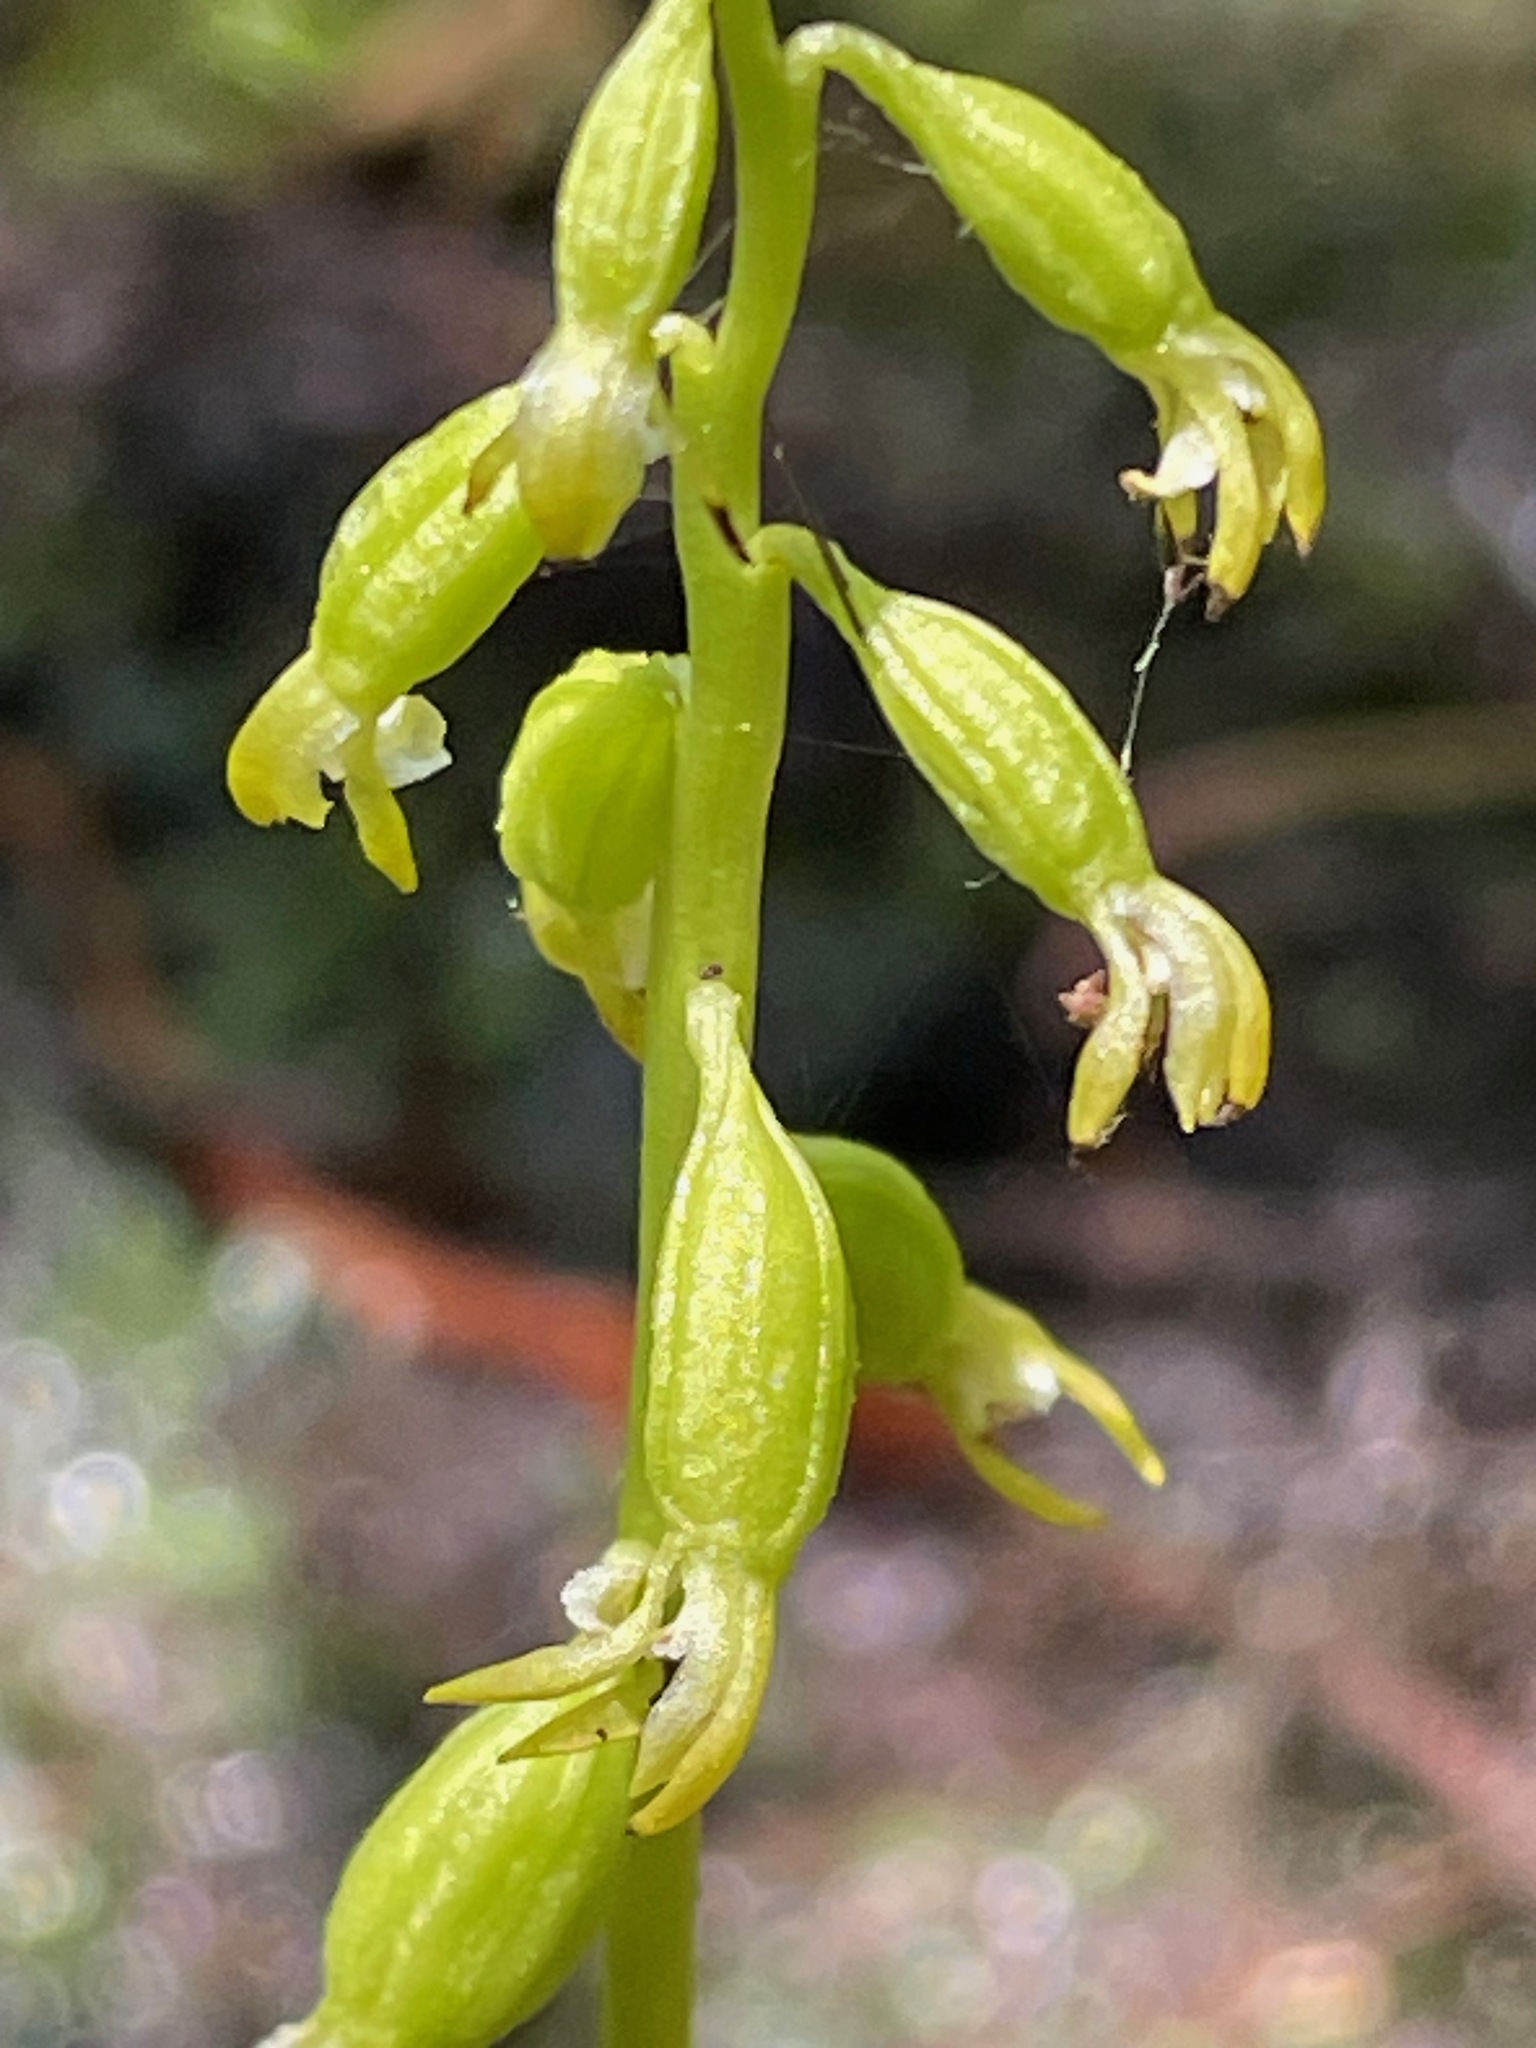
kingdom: Plantae
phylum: Tracheophyta
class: Liliopsida
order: Asparagales
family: Orchidaceae
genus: Corallorhiza
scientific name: Corallorhiza trifida
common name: Yellow coralroot
